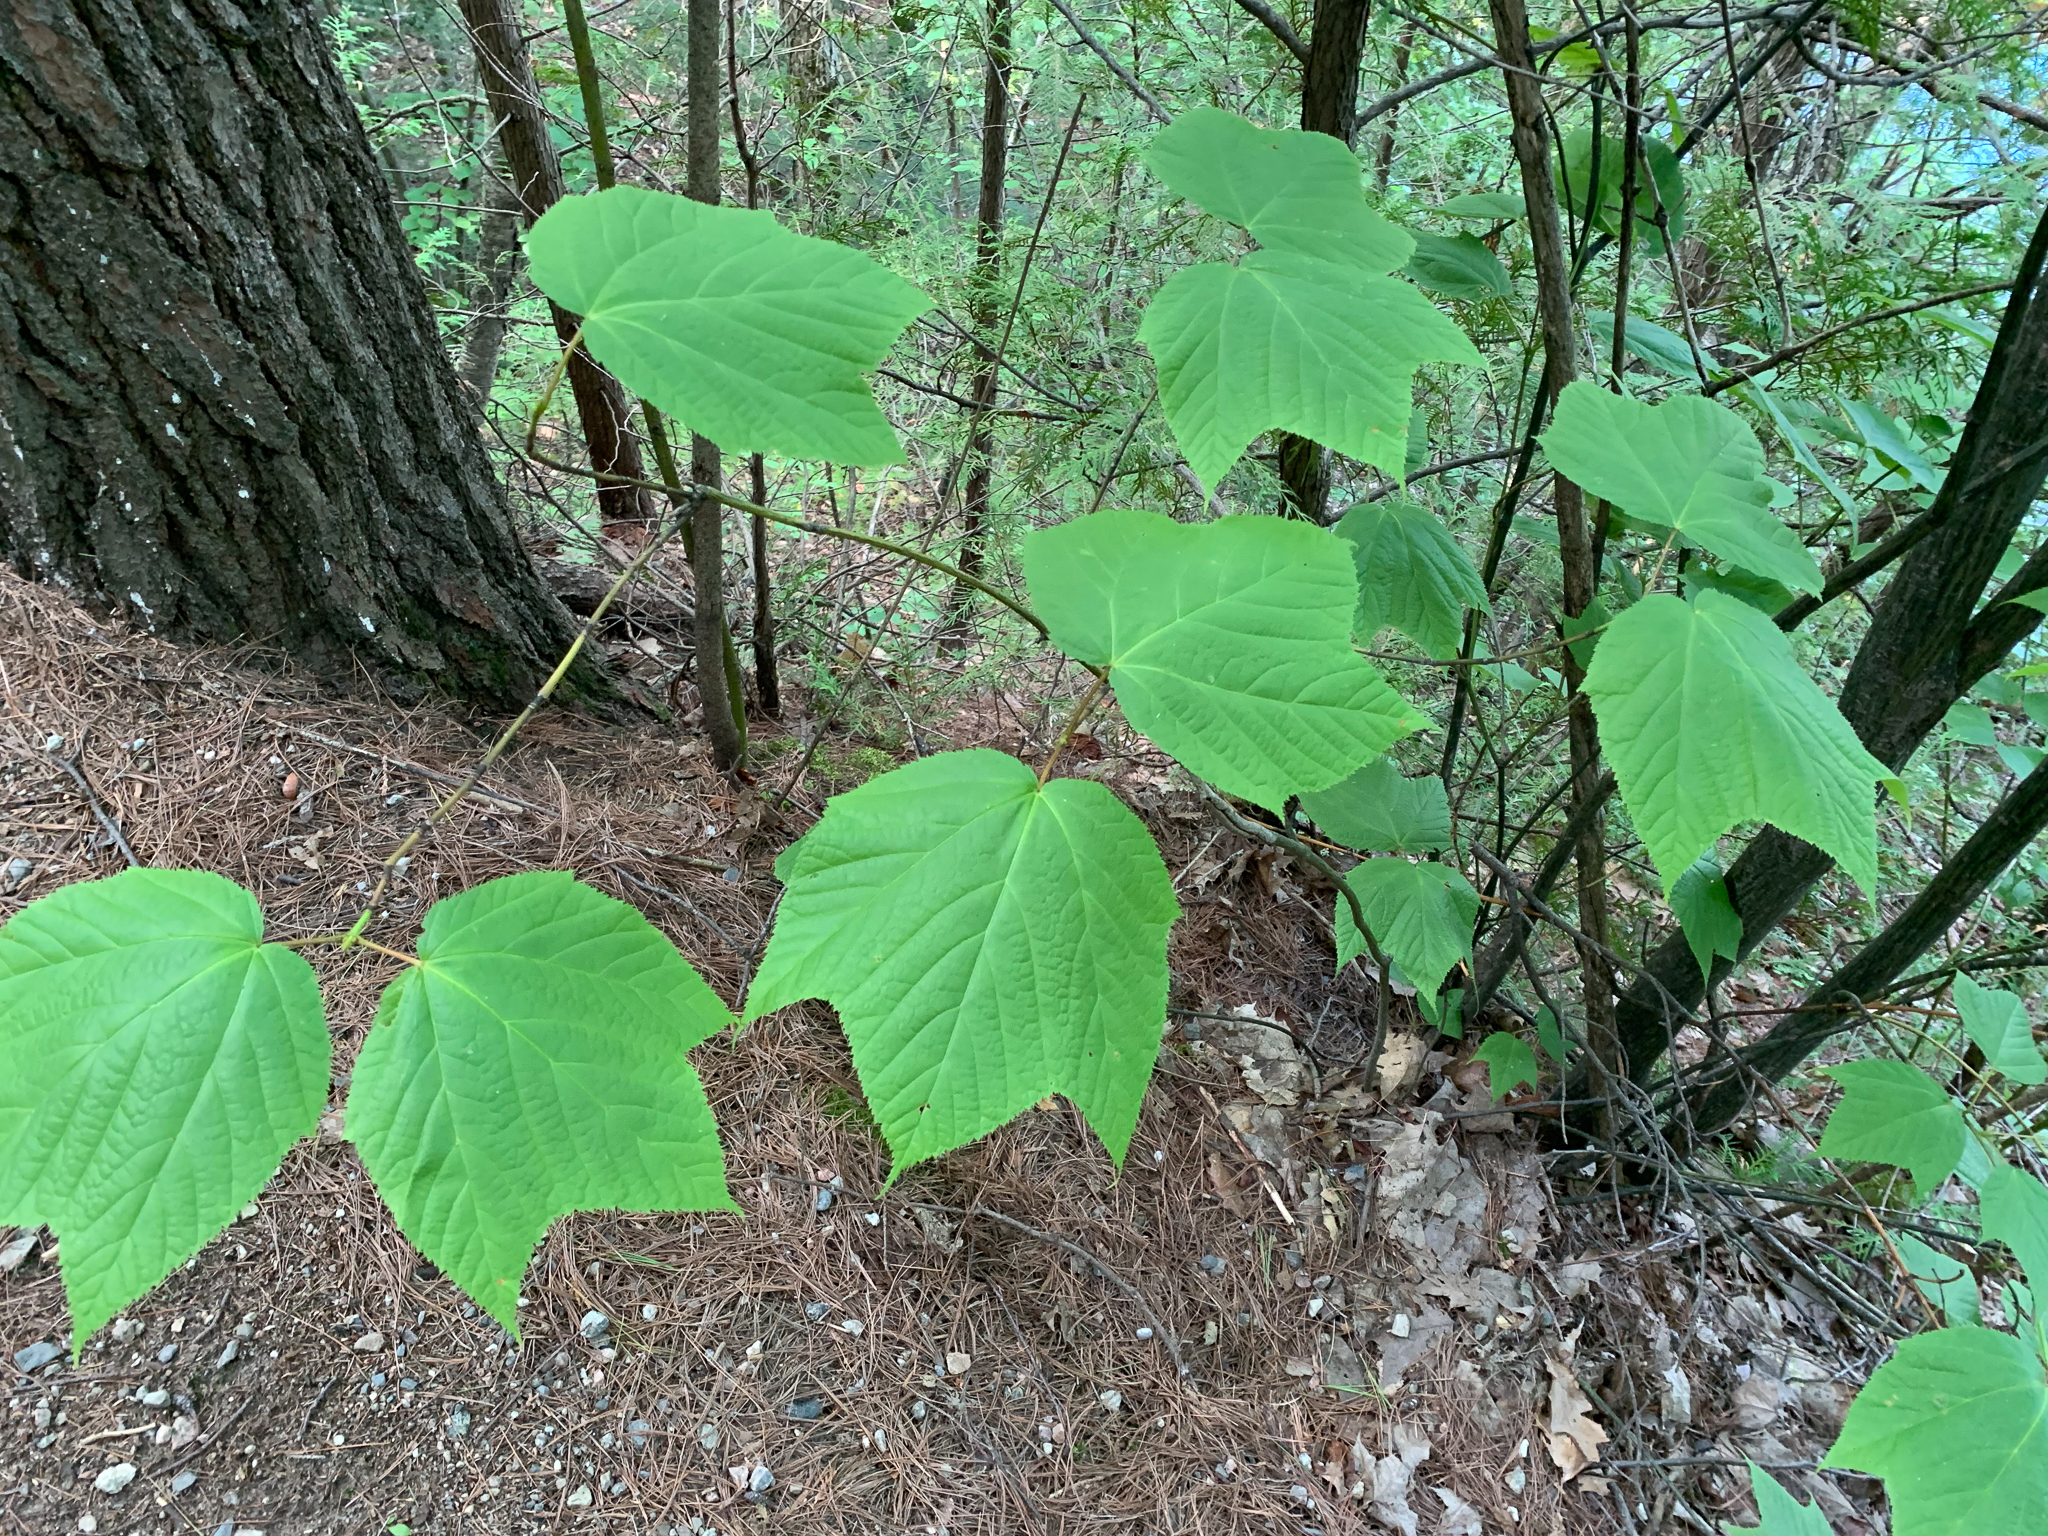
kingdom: Plantae
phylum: Tracheophyta
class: Magnoliopsida
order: Sapindales
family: Sapindaceae
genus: Acer
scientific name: Acer pensylvanicum
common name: Moosewood
